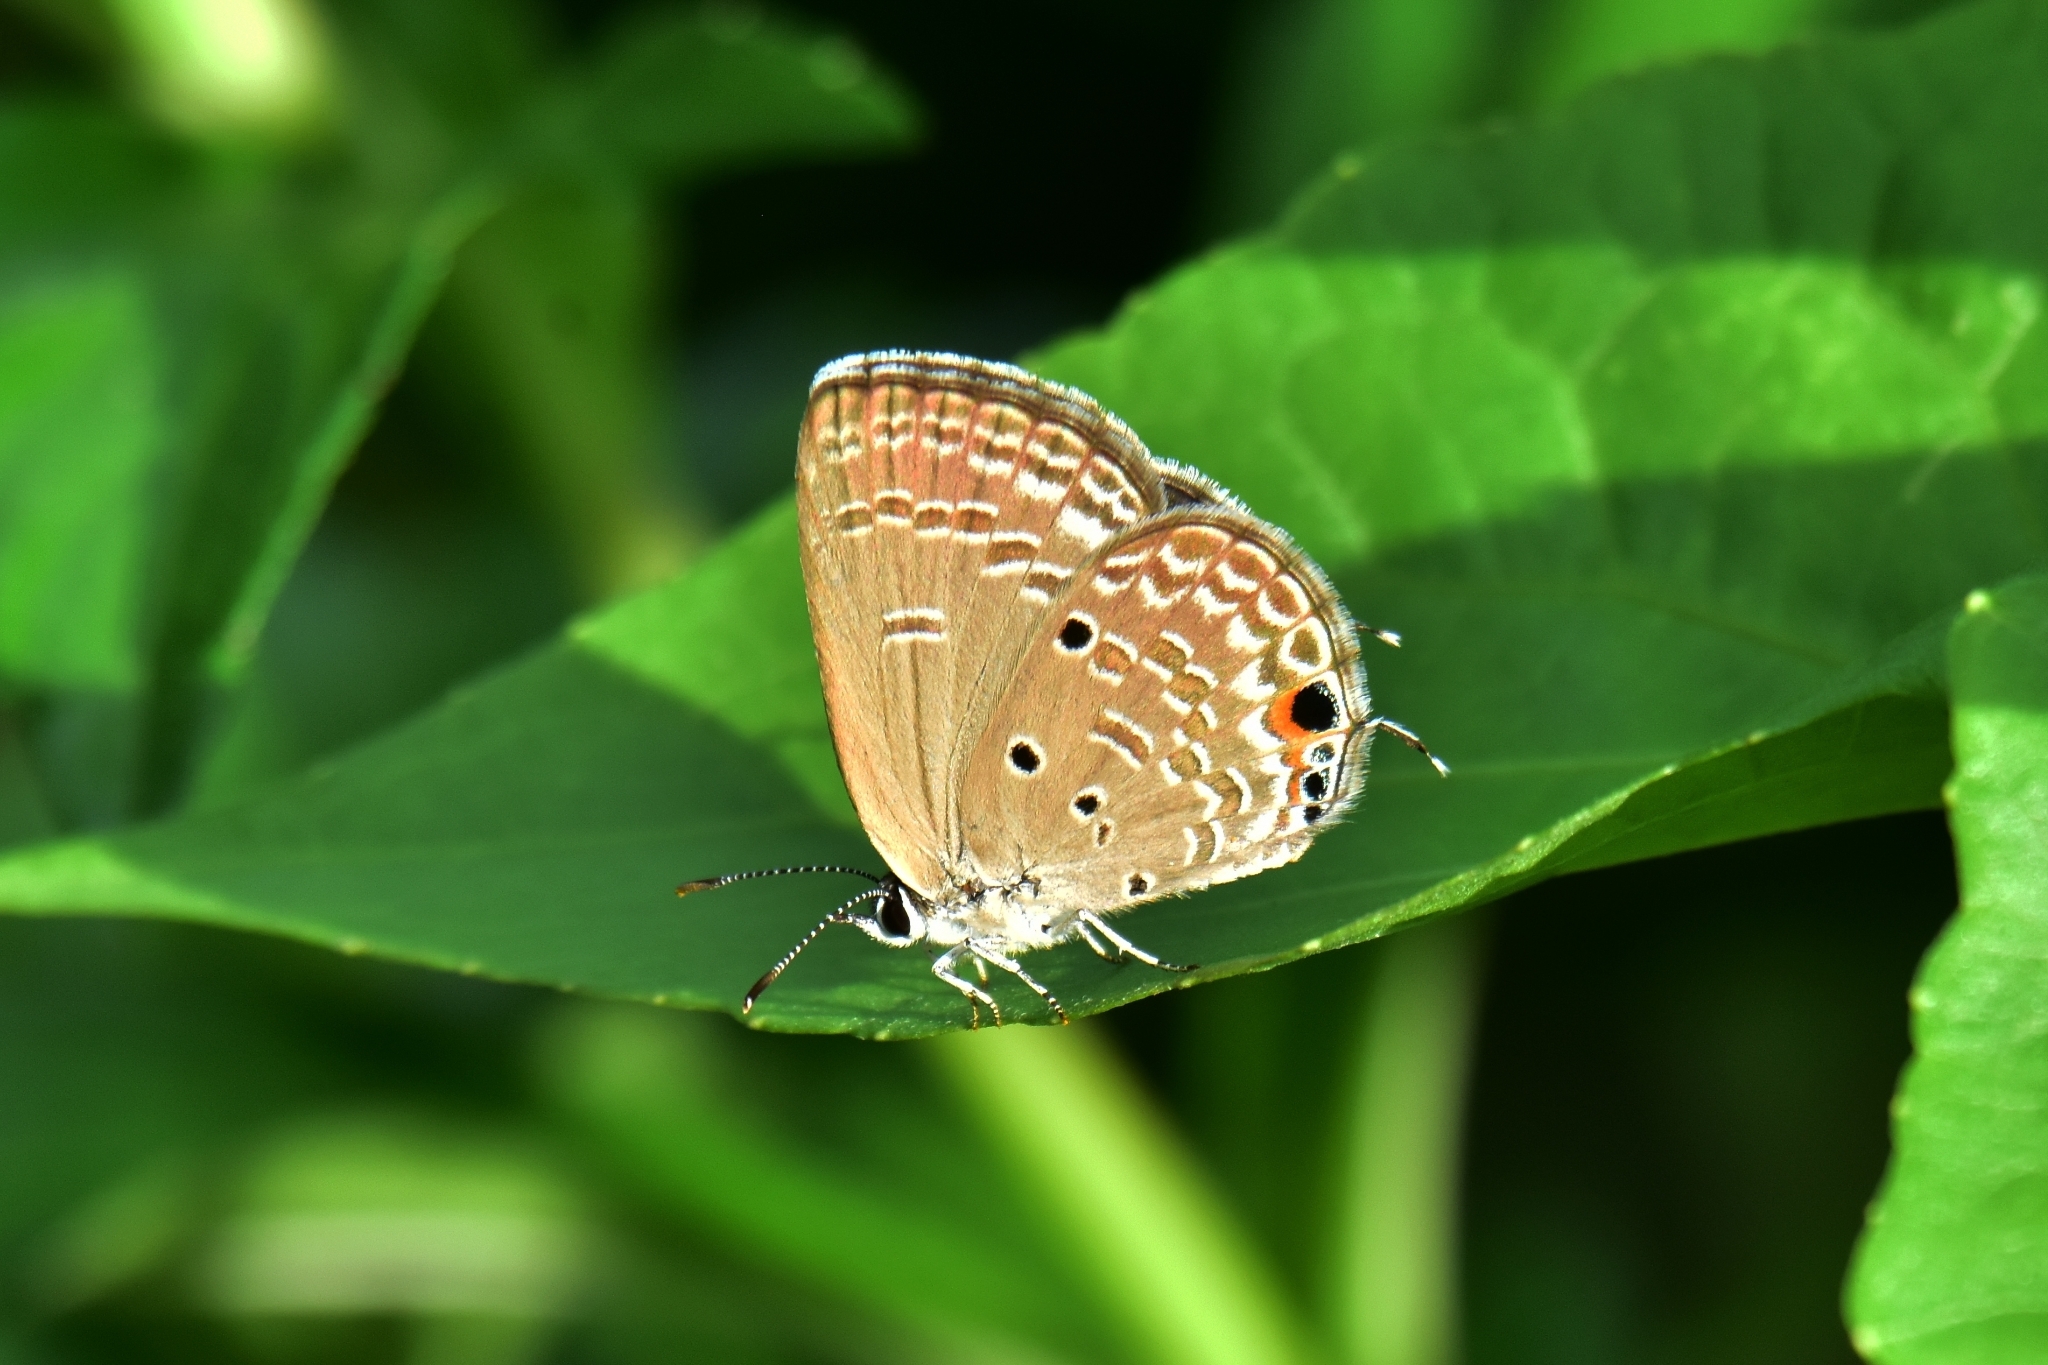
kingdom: Animalia
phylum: Arthropoda
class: Insecta
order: Lepidoptera
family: Lycaenidae
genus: Luthrodes
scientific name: Luthrodes pandava
